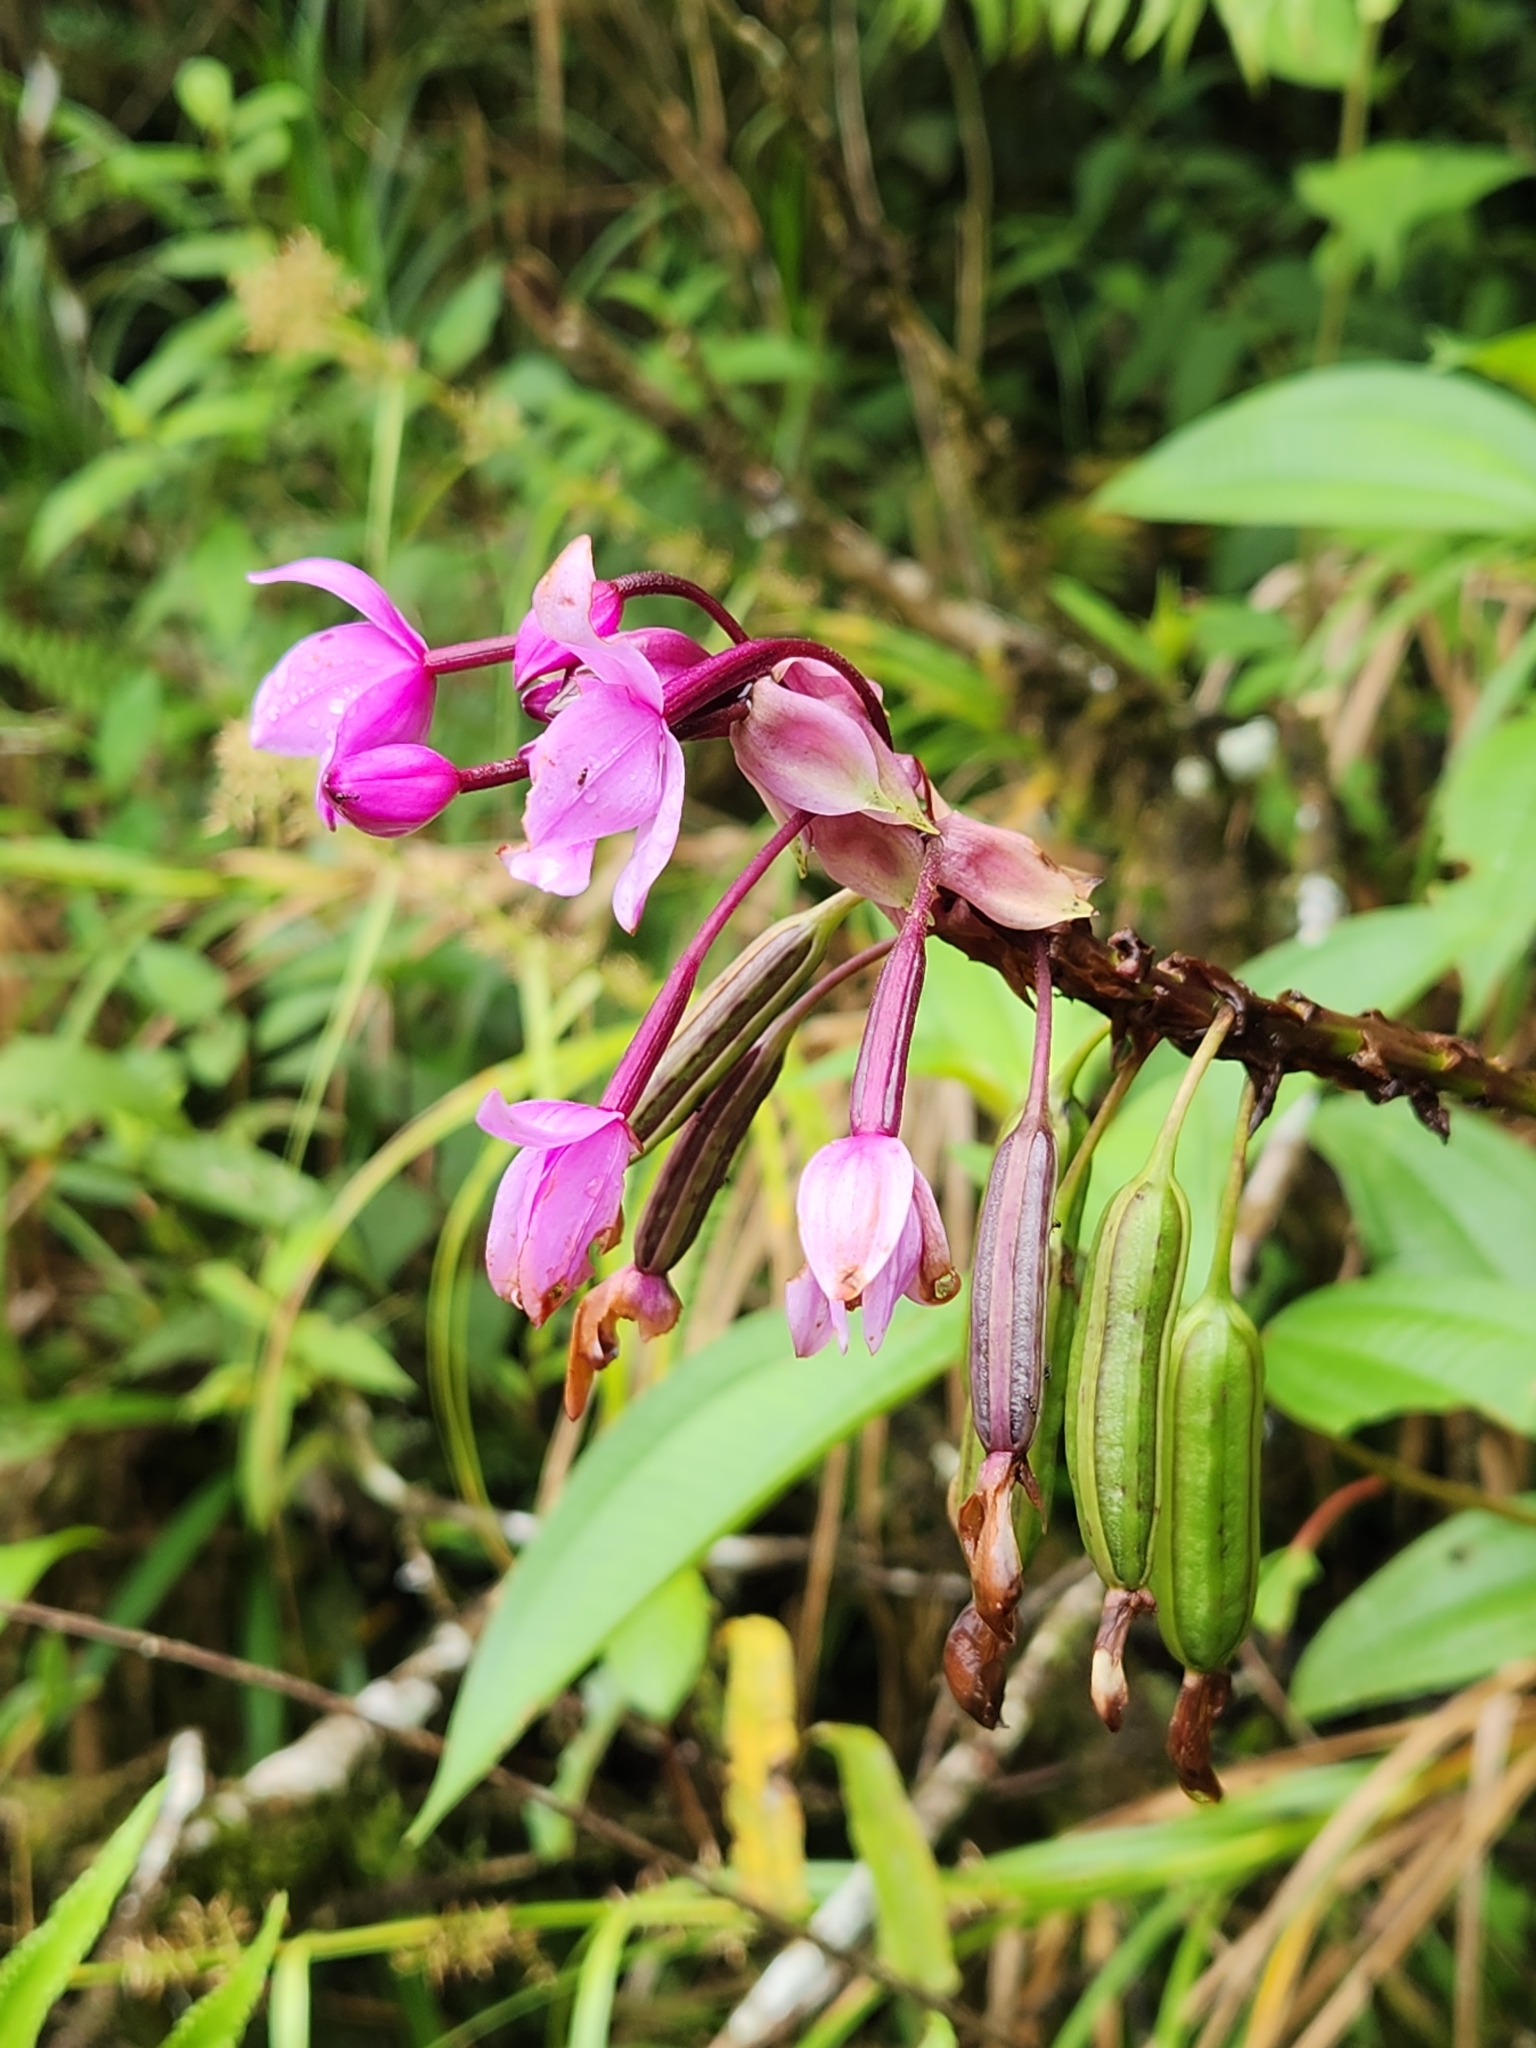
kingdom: Plantae
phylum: Tracheophyta
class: Liliopsida
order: Asparagales
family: Orchidaceae
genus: Spathoglottis
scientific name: Spathoglottis plicata
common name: Philippine ground orchid
